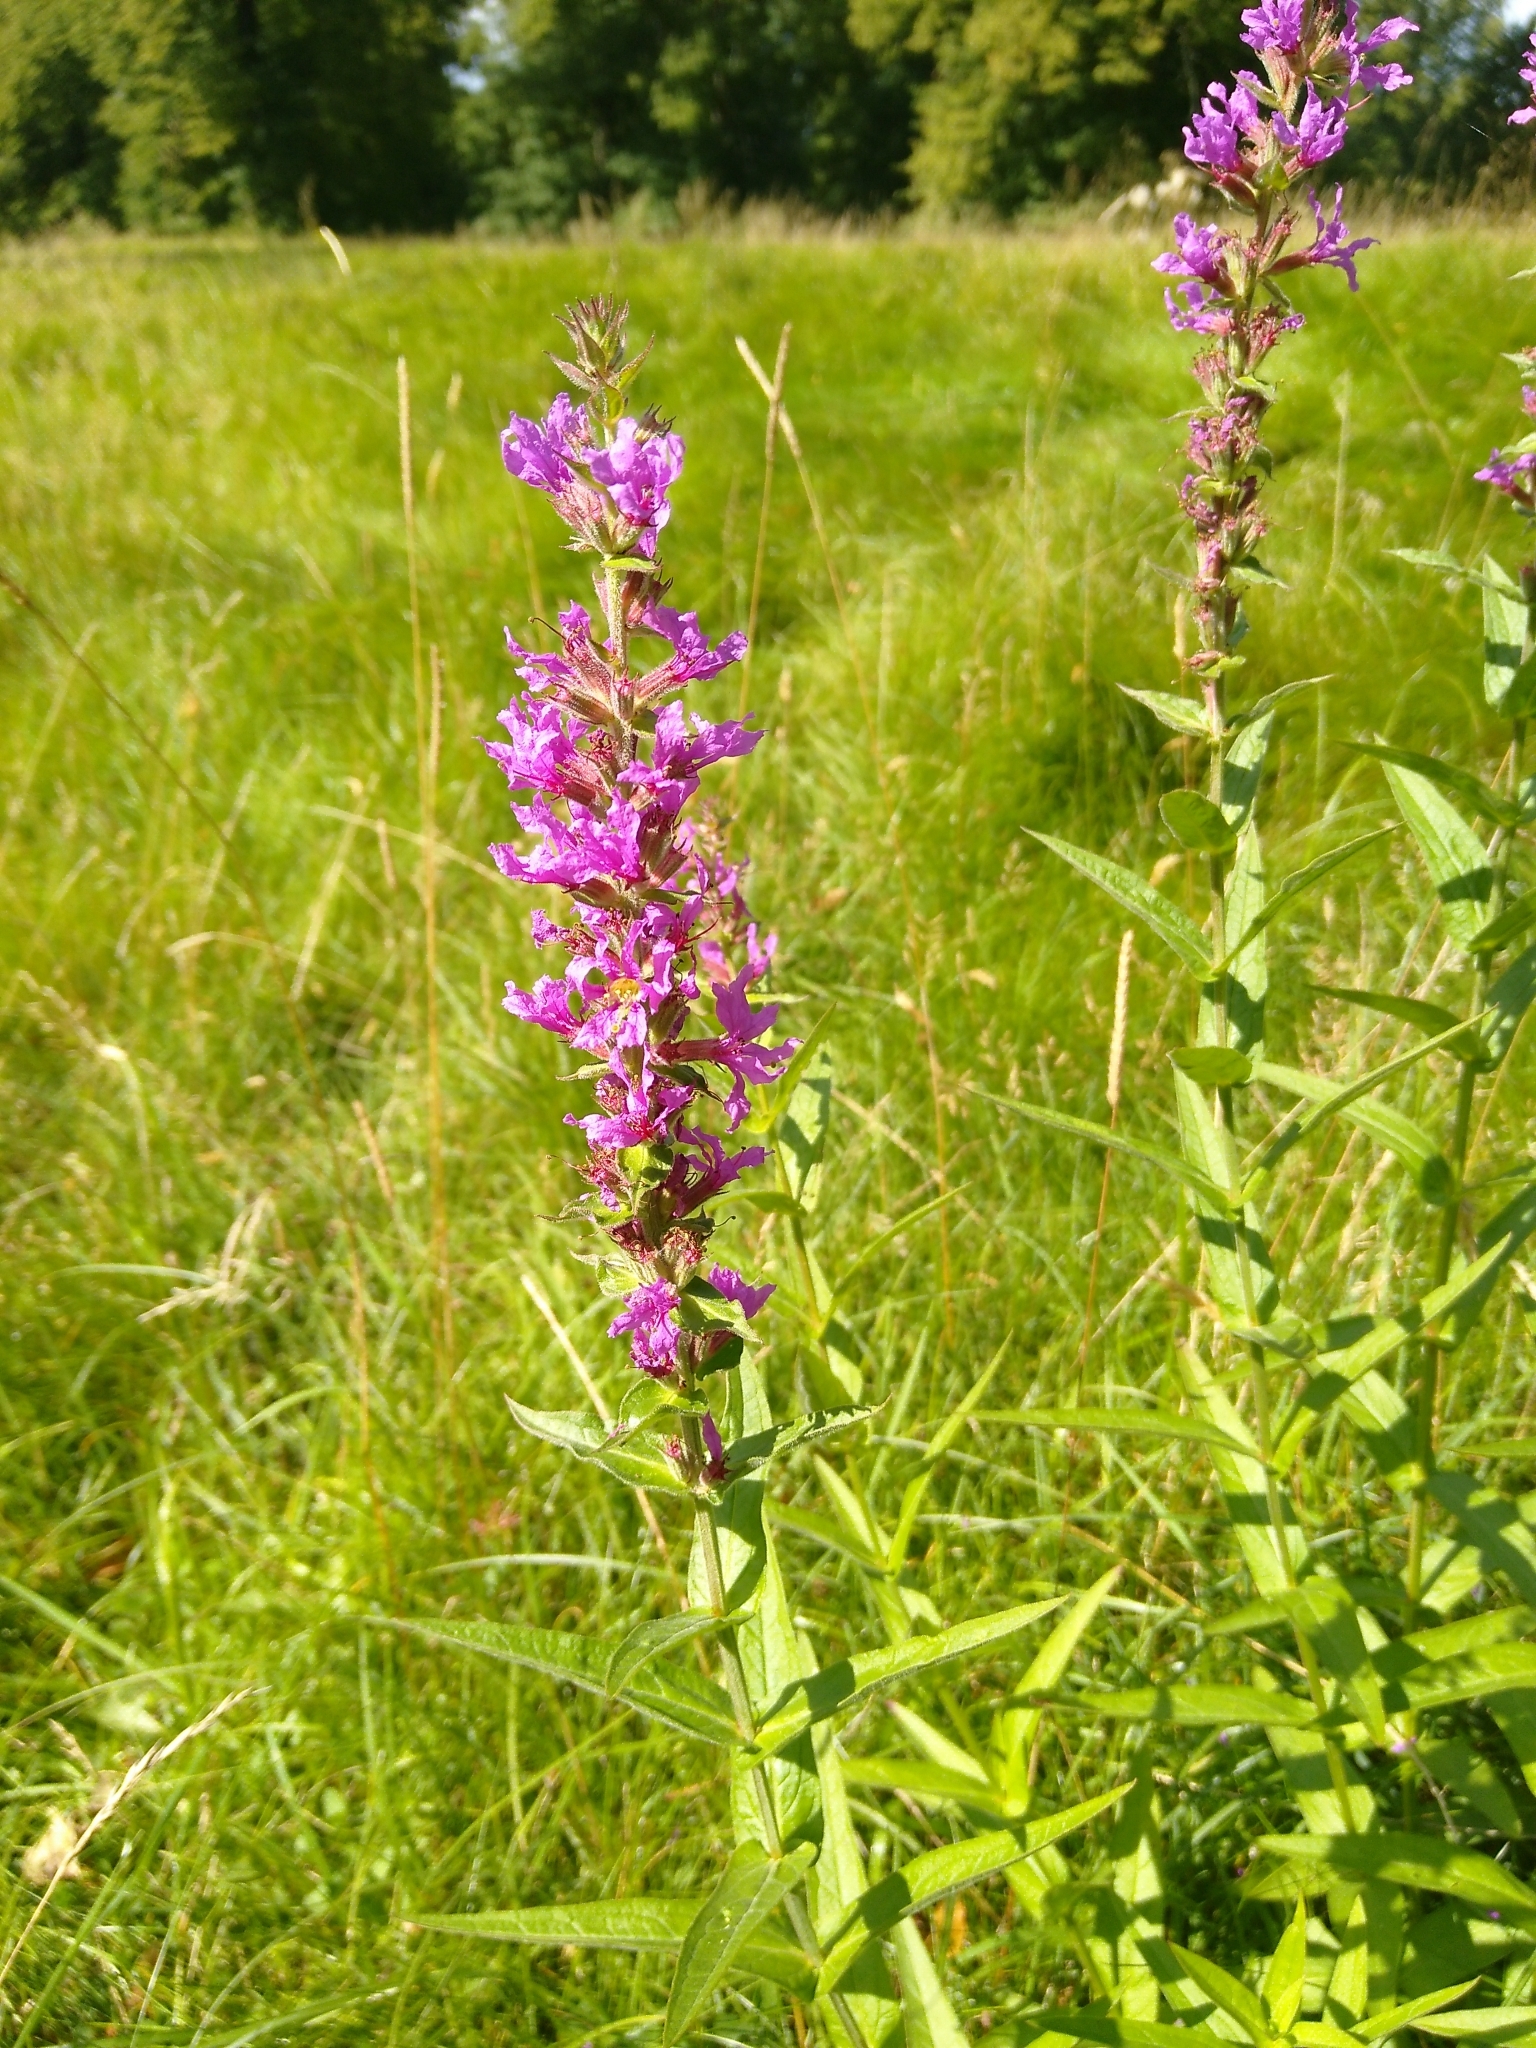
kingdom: Plantae
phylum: Tracheophyta
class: Magnoliopsida
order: Myrtales
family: Lythraceae
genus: Lythrum
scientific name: Lythrum salicaria
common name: Purple loosestrife
